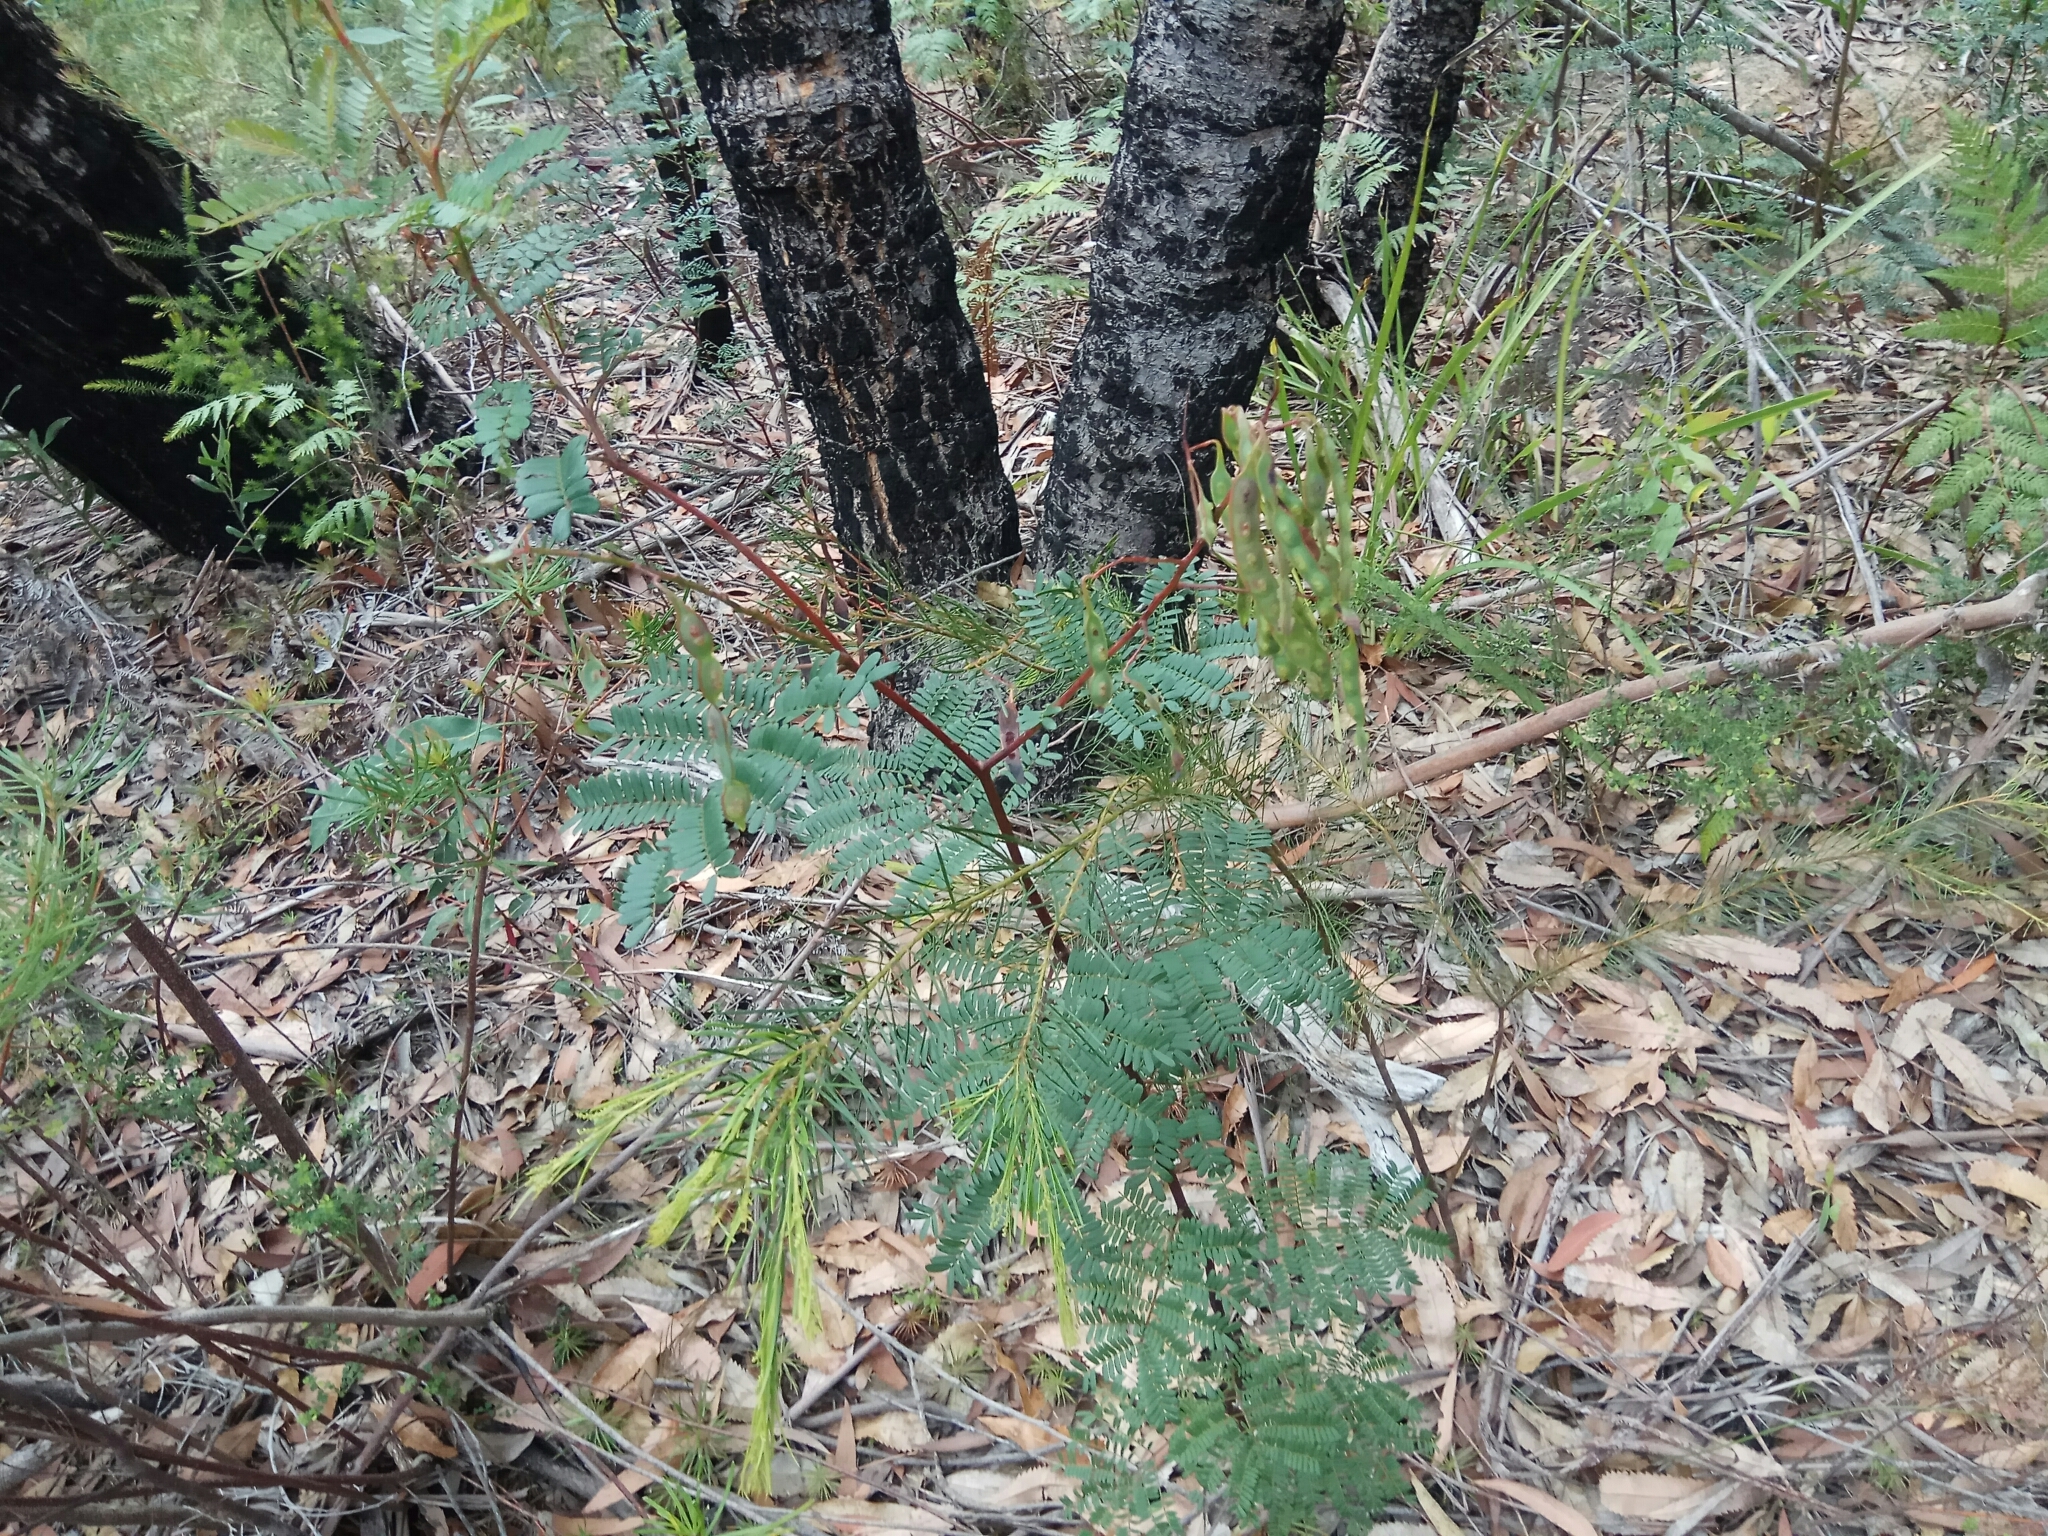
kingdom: Plantae
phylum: Tracheophyta
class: Magnoliopsida
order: Fabales
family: Fabaceae
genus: Acacia
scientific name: Acacia terminalis
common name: Cedar wattle
